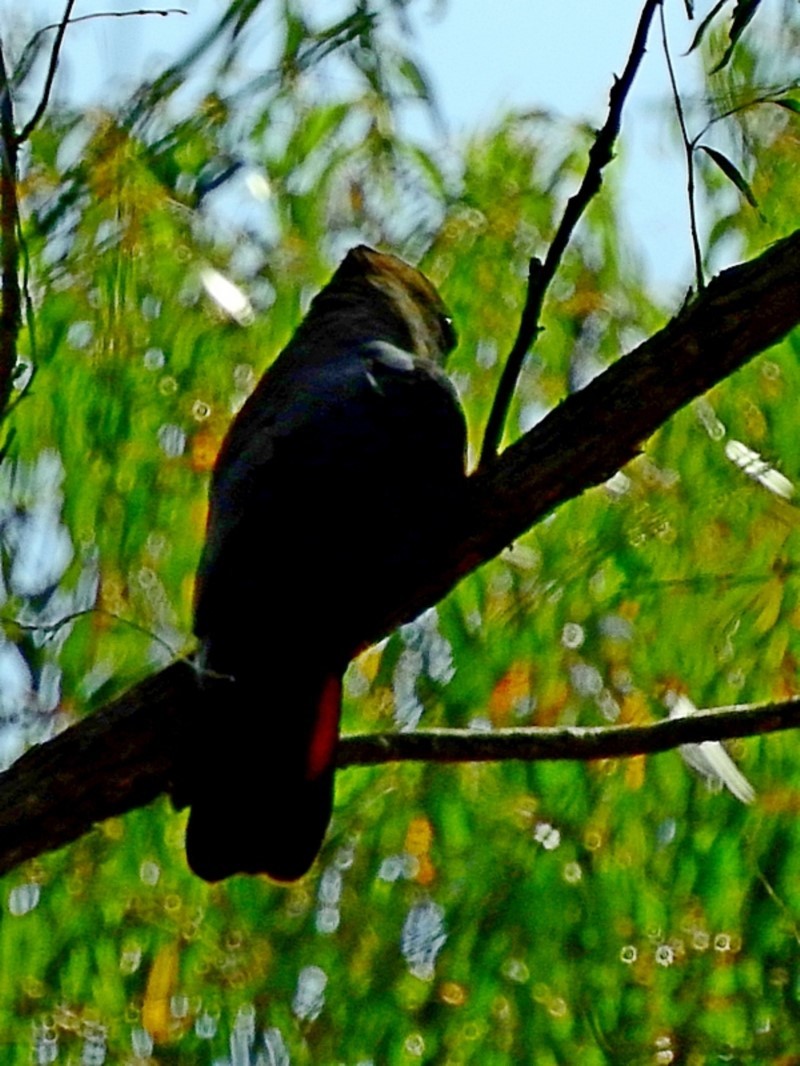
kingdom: Animalia
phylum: Chordata
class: Aves
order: Psittaciformes
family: Psittacidae
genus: Calyptorhynchus
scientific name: Calyptorhynchus lathami
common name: Glossy black cockatoo
